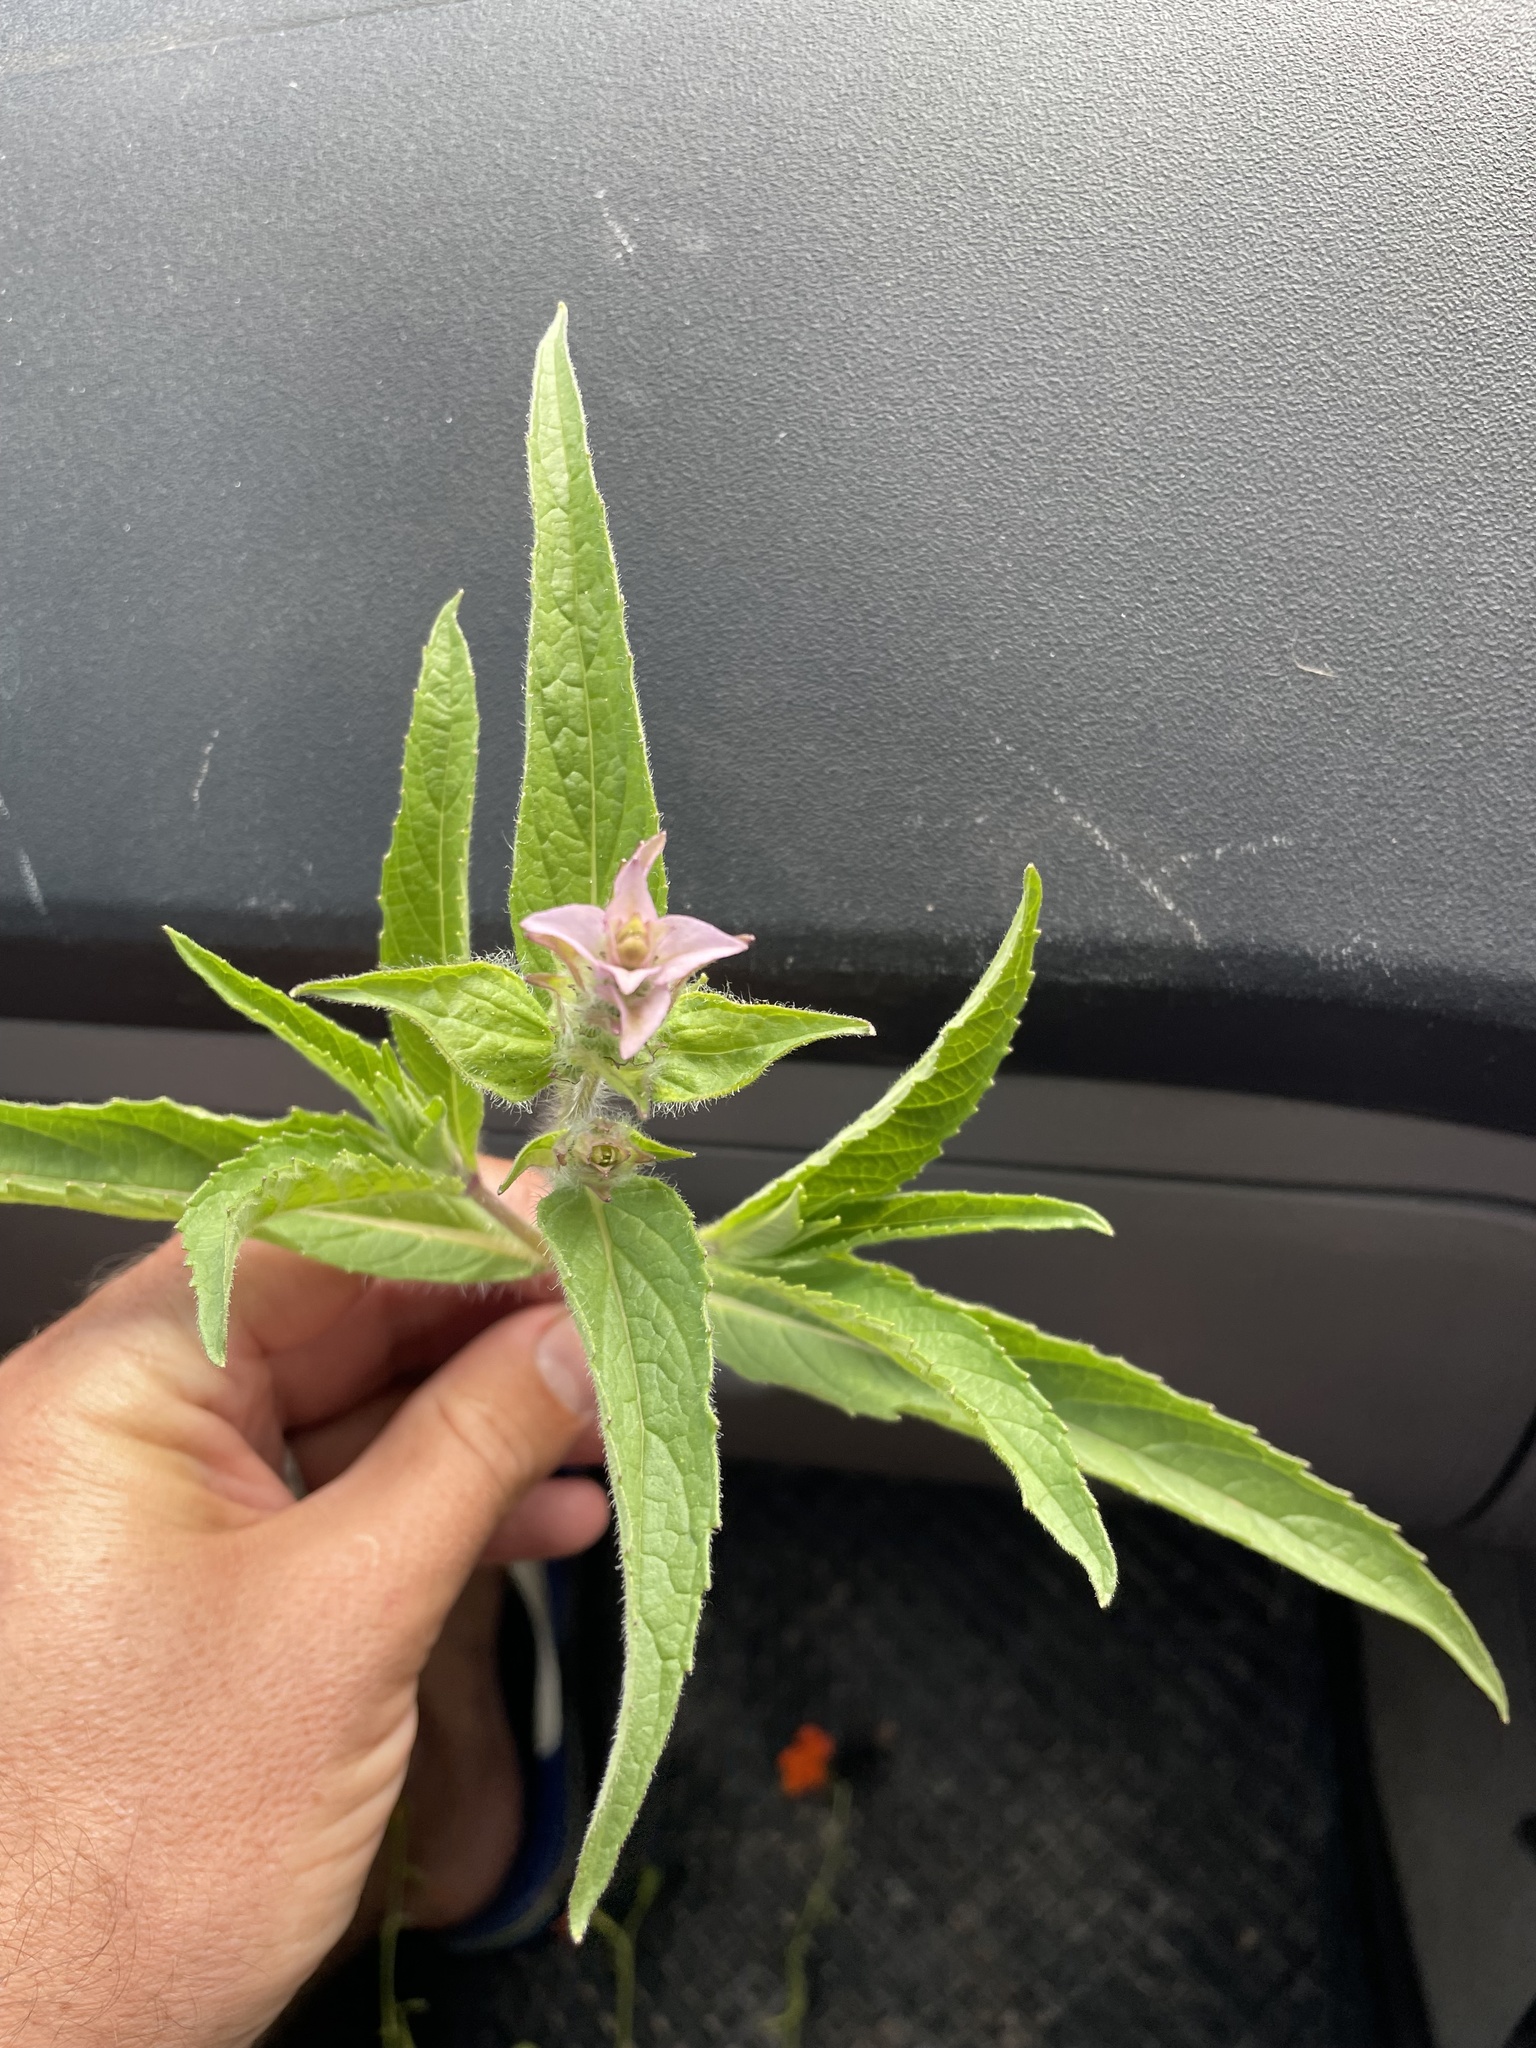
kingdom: Plantae
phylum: Tracheophyta
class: Magnoliopsida
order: Lamiales
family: Lamiaceae
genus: Syncolostemon
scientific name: Syncolostemon bracteosus
